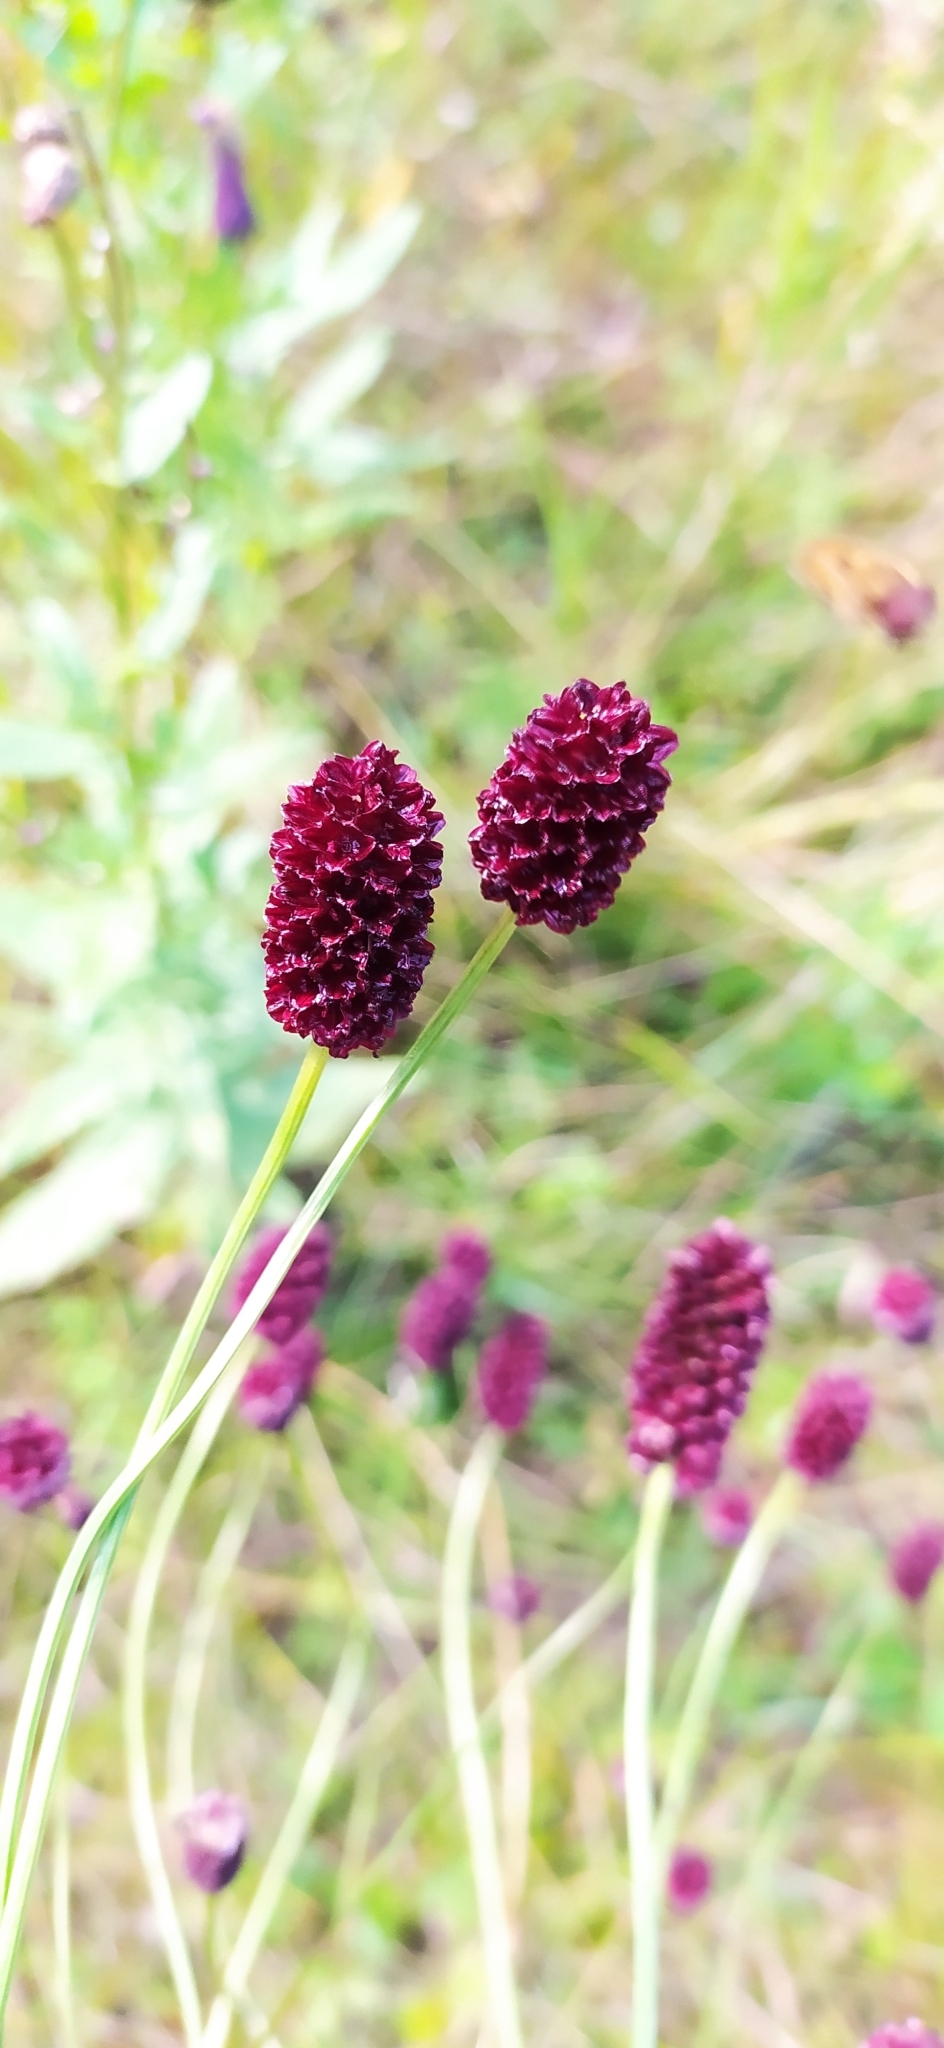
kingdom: Plantae
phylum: Tracheophyta
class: Magnoliopsida
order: Rosales
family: Rosaceae
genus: Sanguisorba
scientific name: Sanguisorba officinalis
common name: Great burnet
